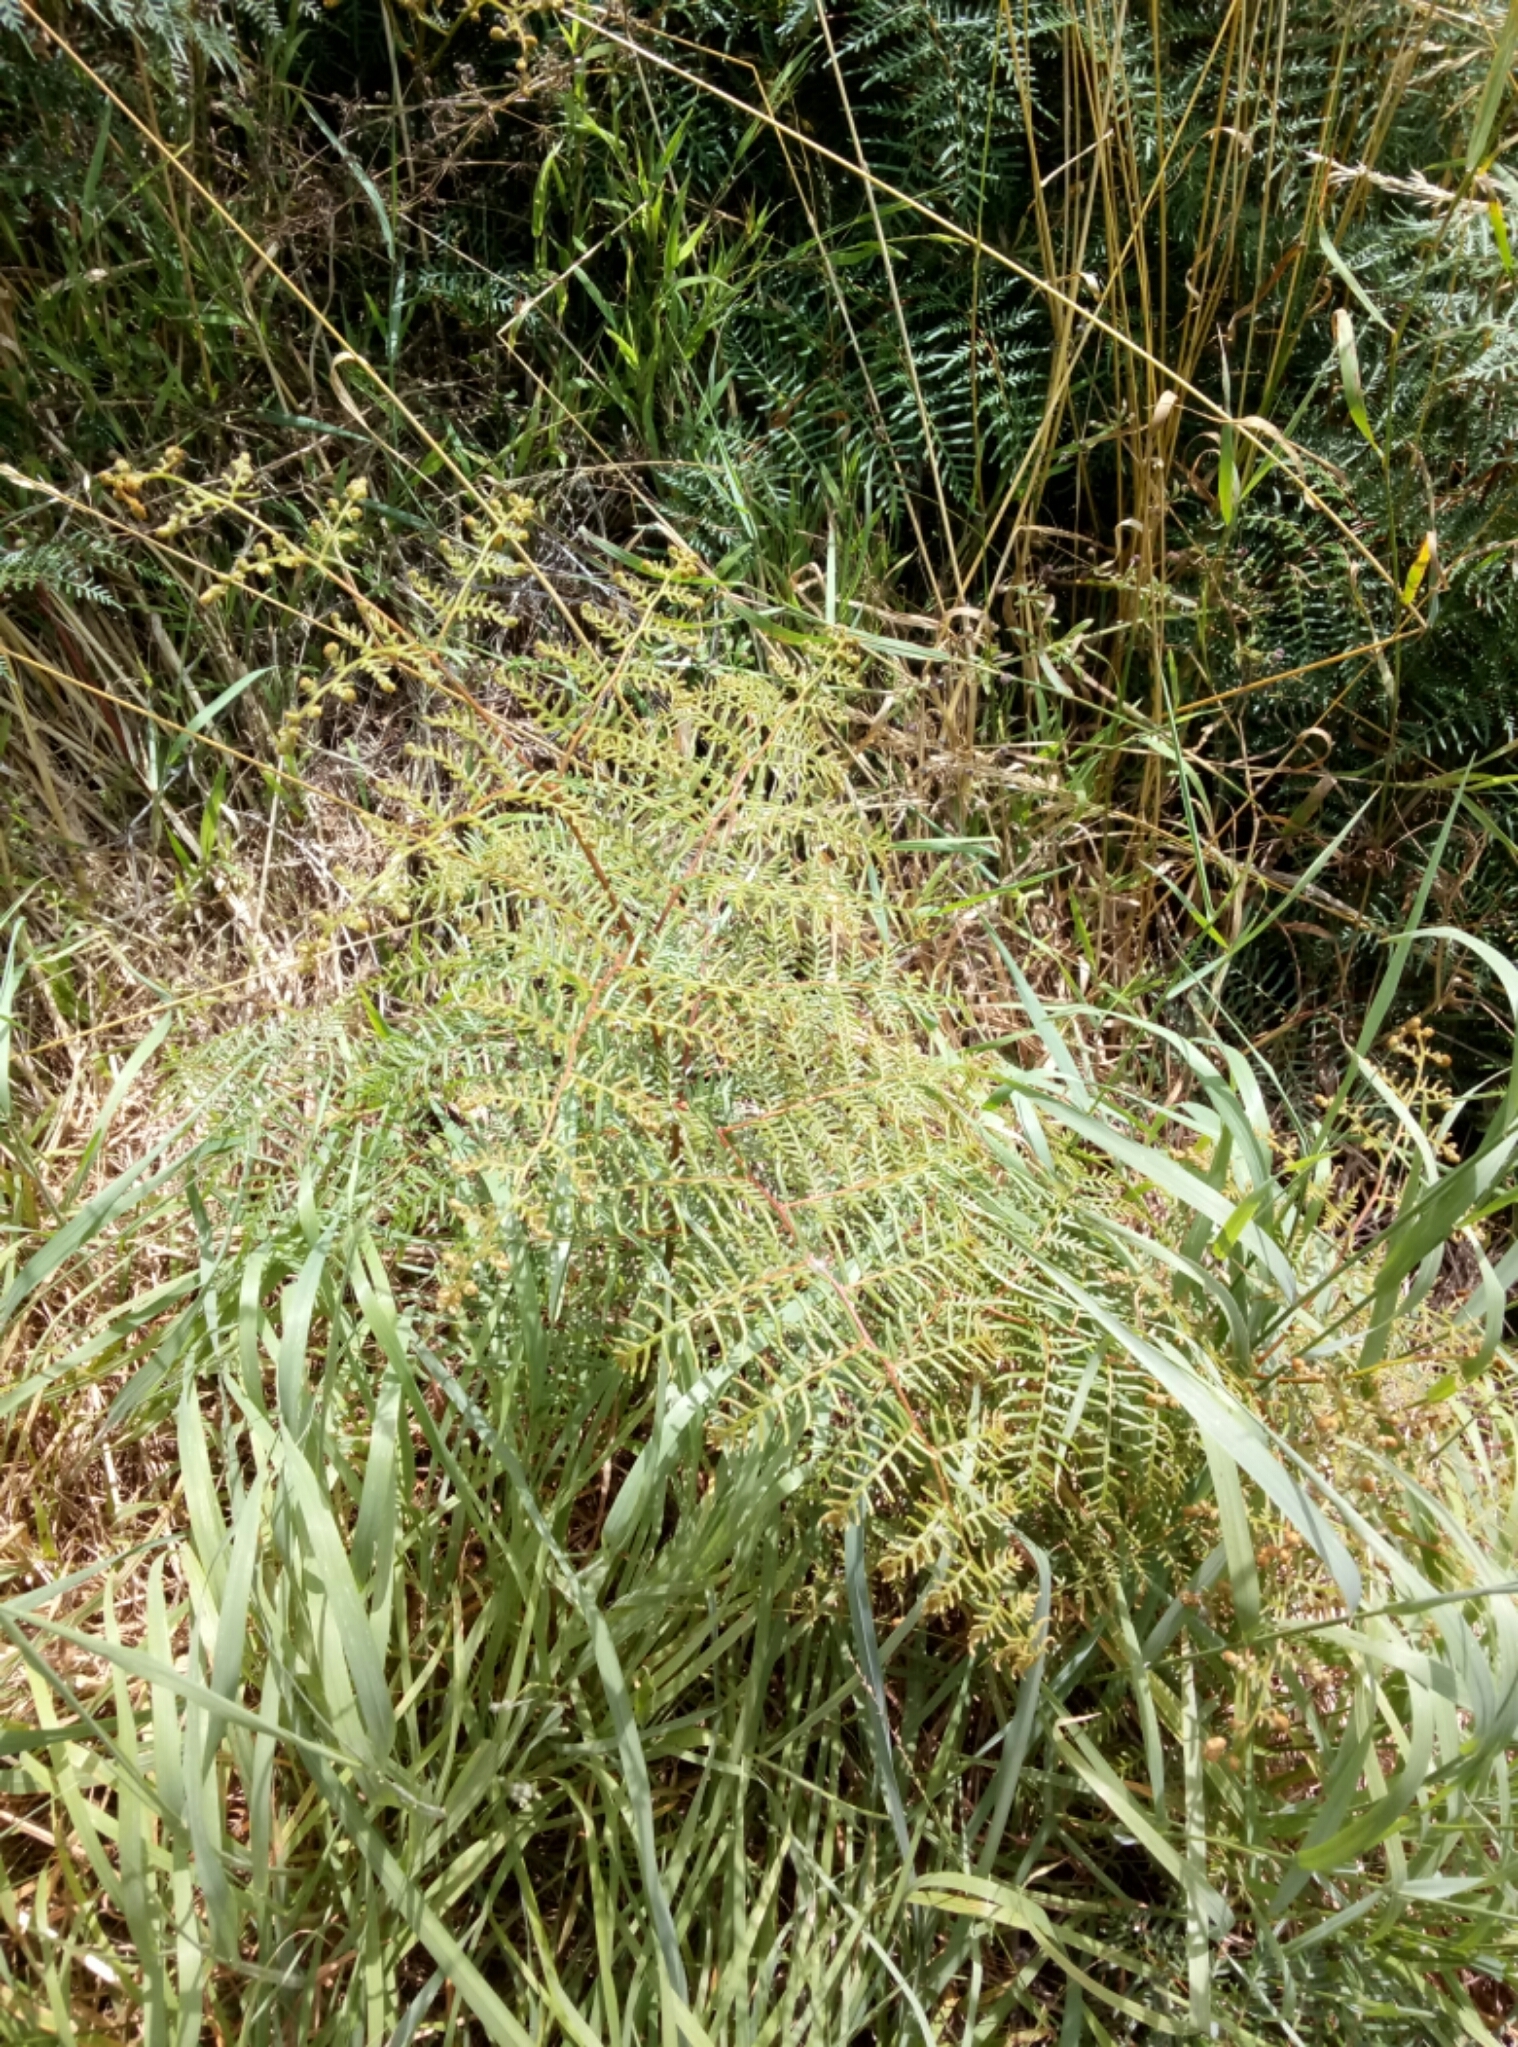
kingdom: Plantae
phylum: Tracheophyta
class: Polypodiopsida
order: Polypodiales
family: Dennstaedtiaceae
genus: Pteridium
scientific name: Pteridium esculentum
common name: Bracken fern
